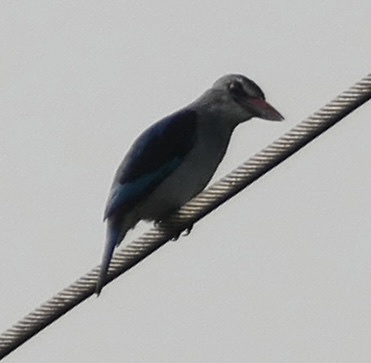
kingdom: Animalia
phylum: Chordata
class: Aves
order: Coraciiformes
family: Alcedinidae
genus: Halcyon
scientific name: Halcyon senegalensis
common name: Woodland kingfisher
